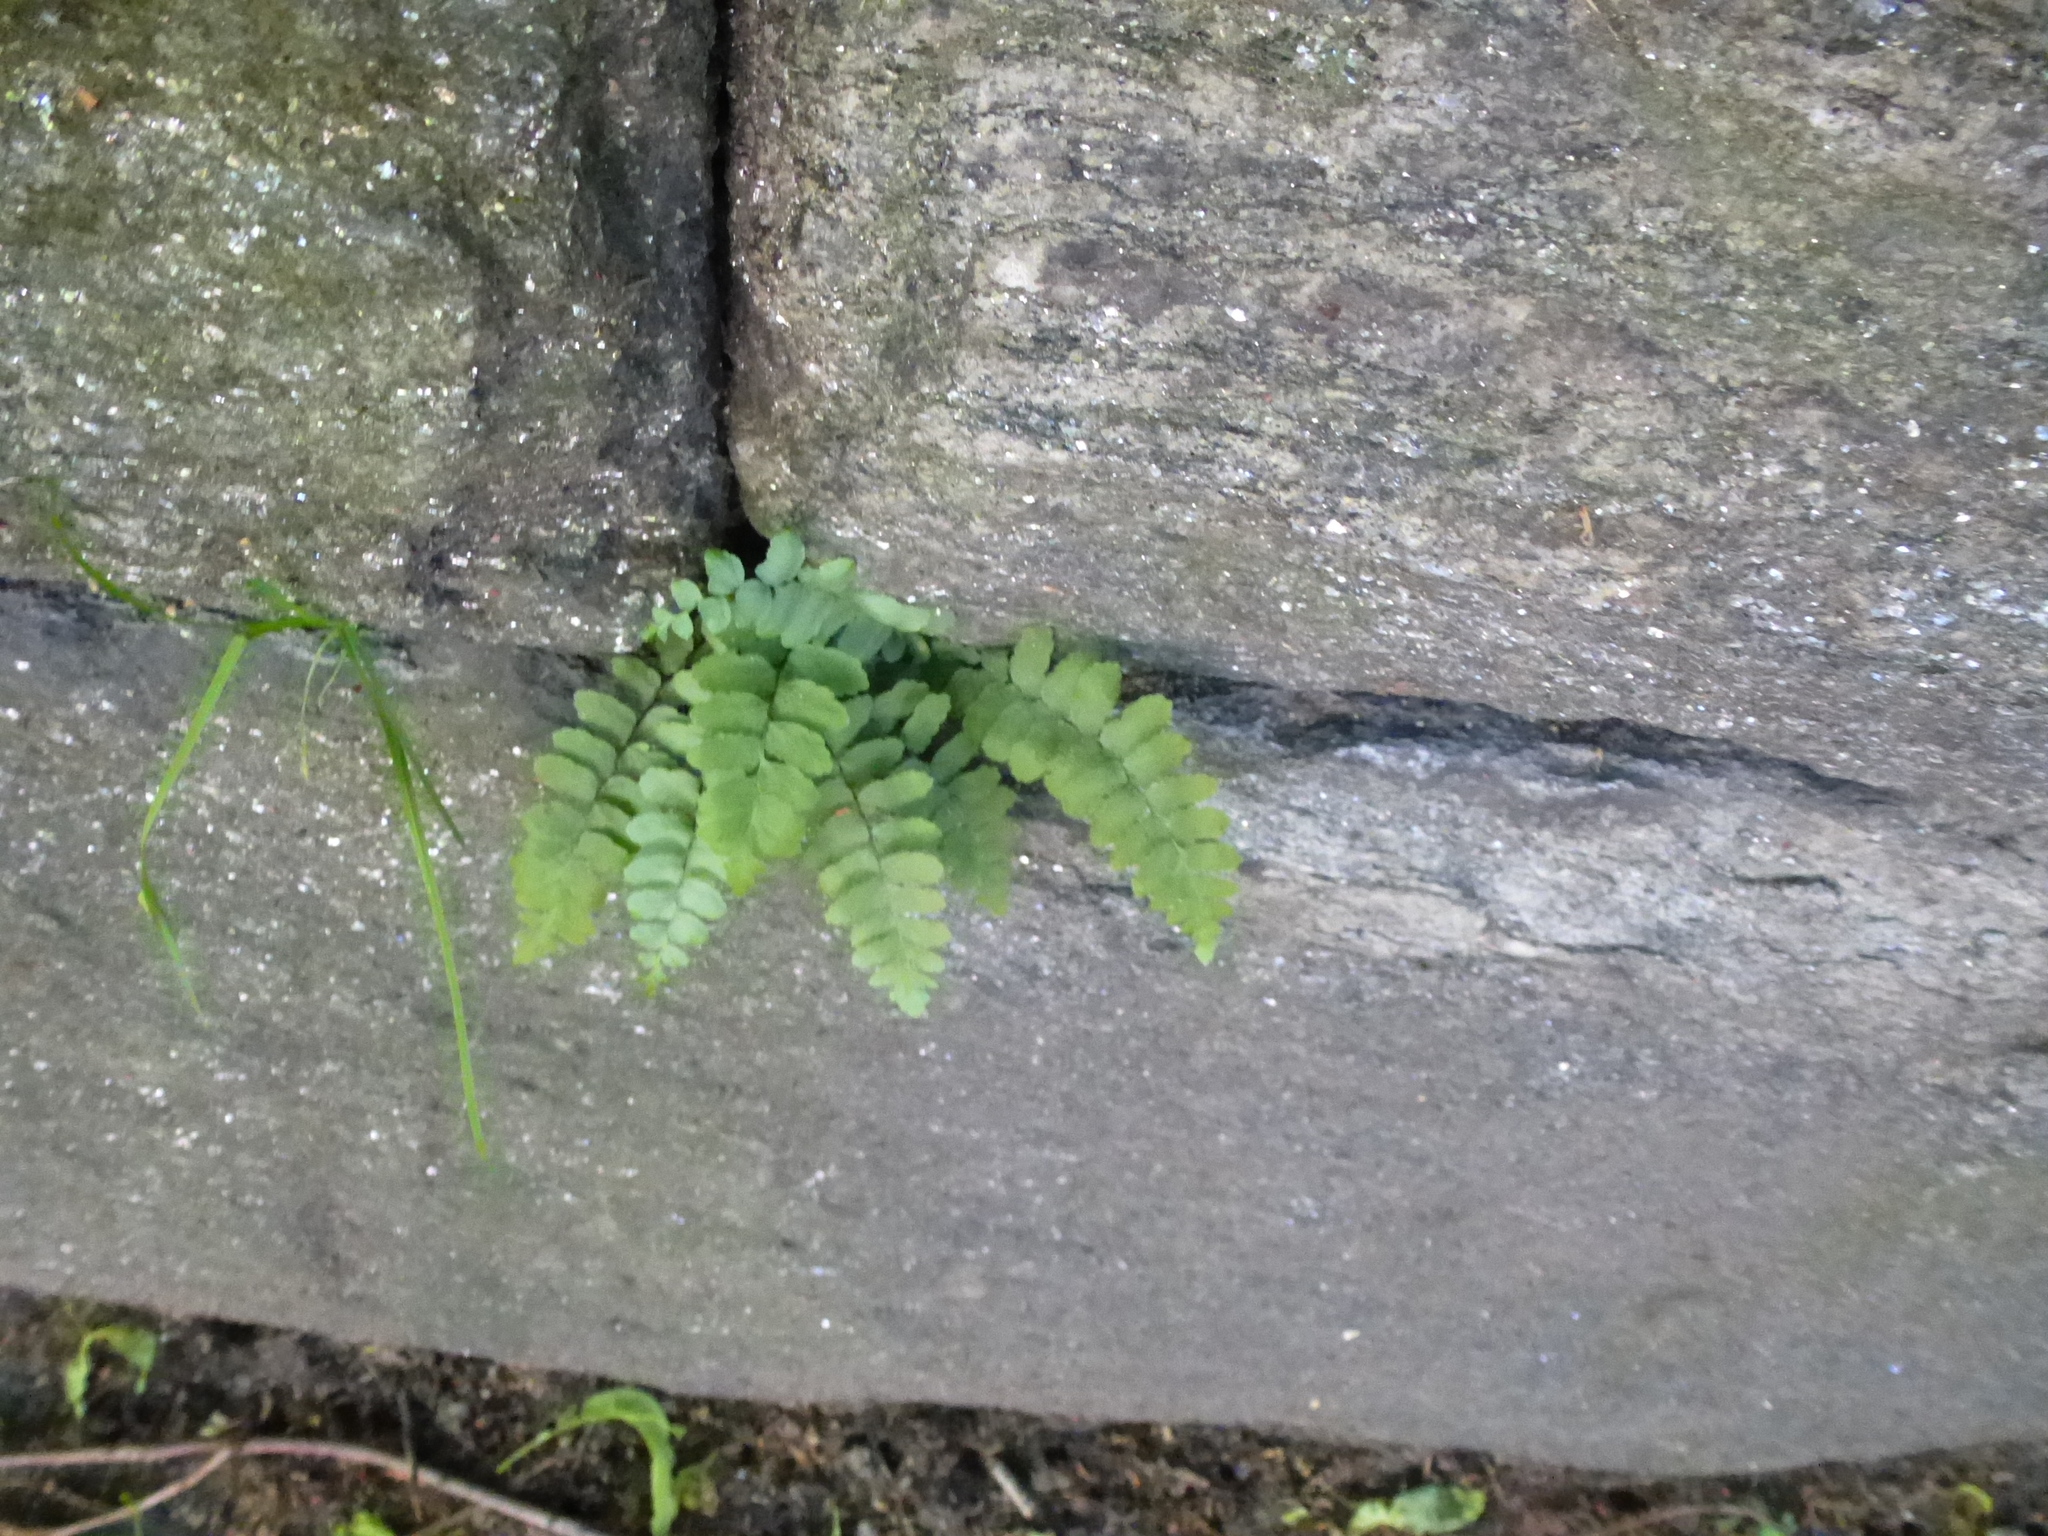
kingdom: Plantae
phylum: Tracheophyta
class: Polypodiopsida
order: Polypodiales
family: Aspleniaceae
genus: Asplenium
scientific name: Asplenium platyneuron
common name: Ebony spleenwort
